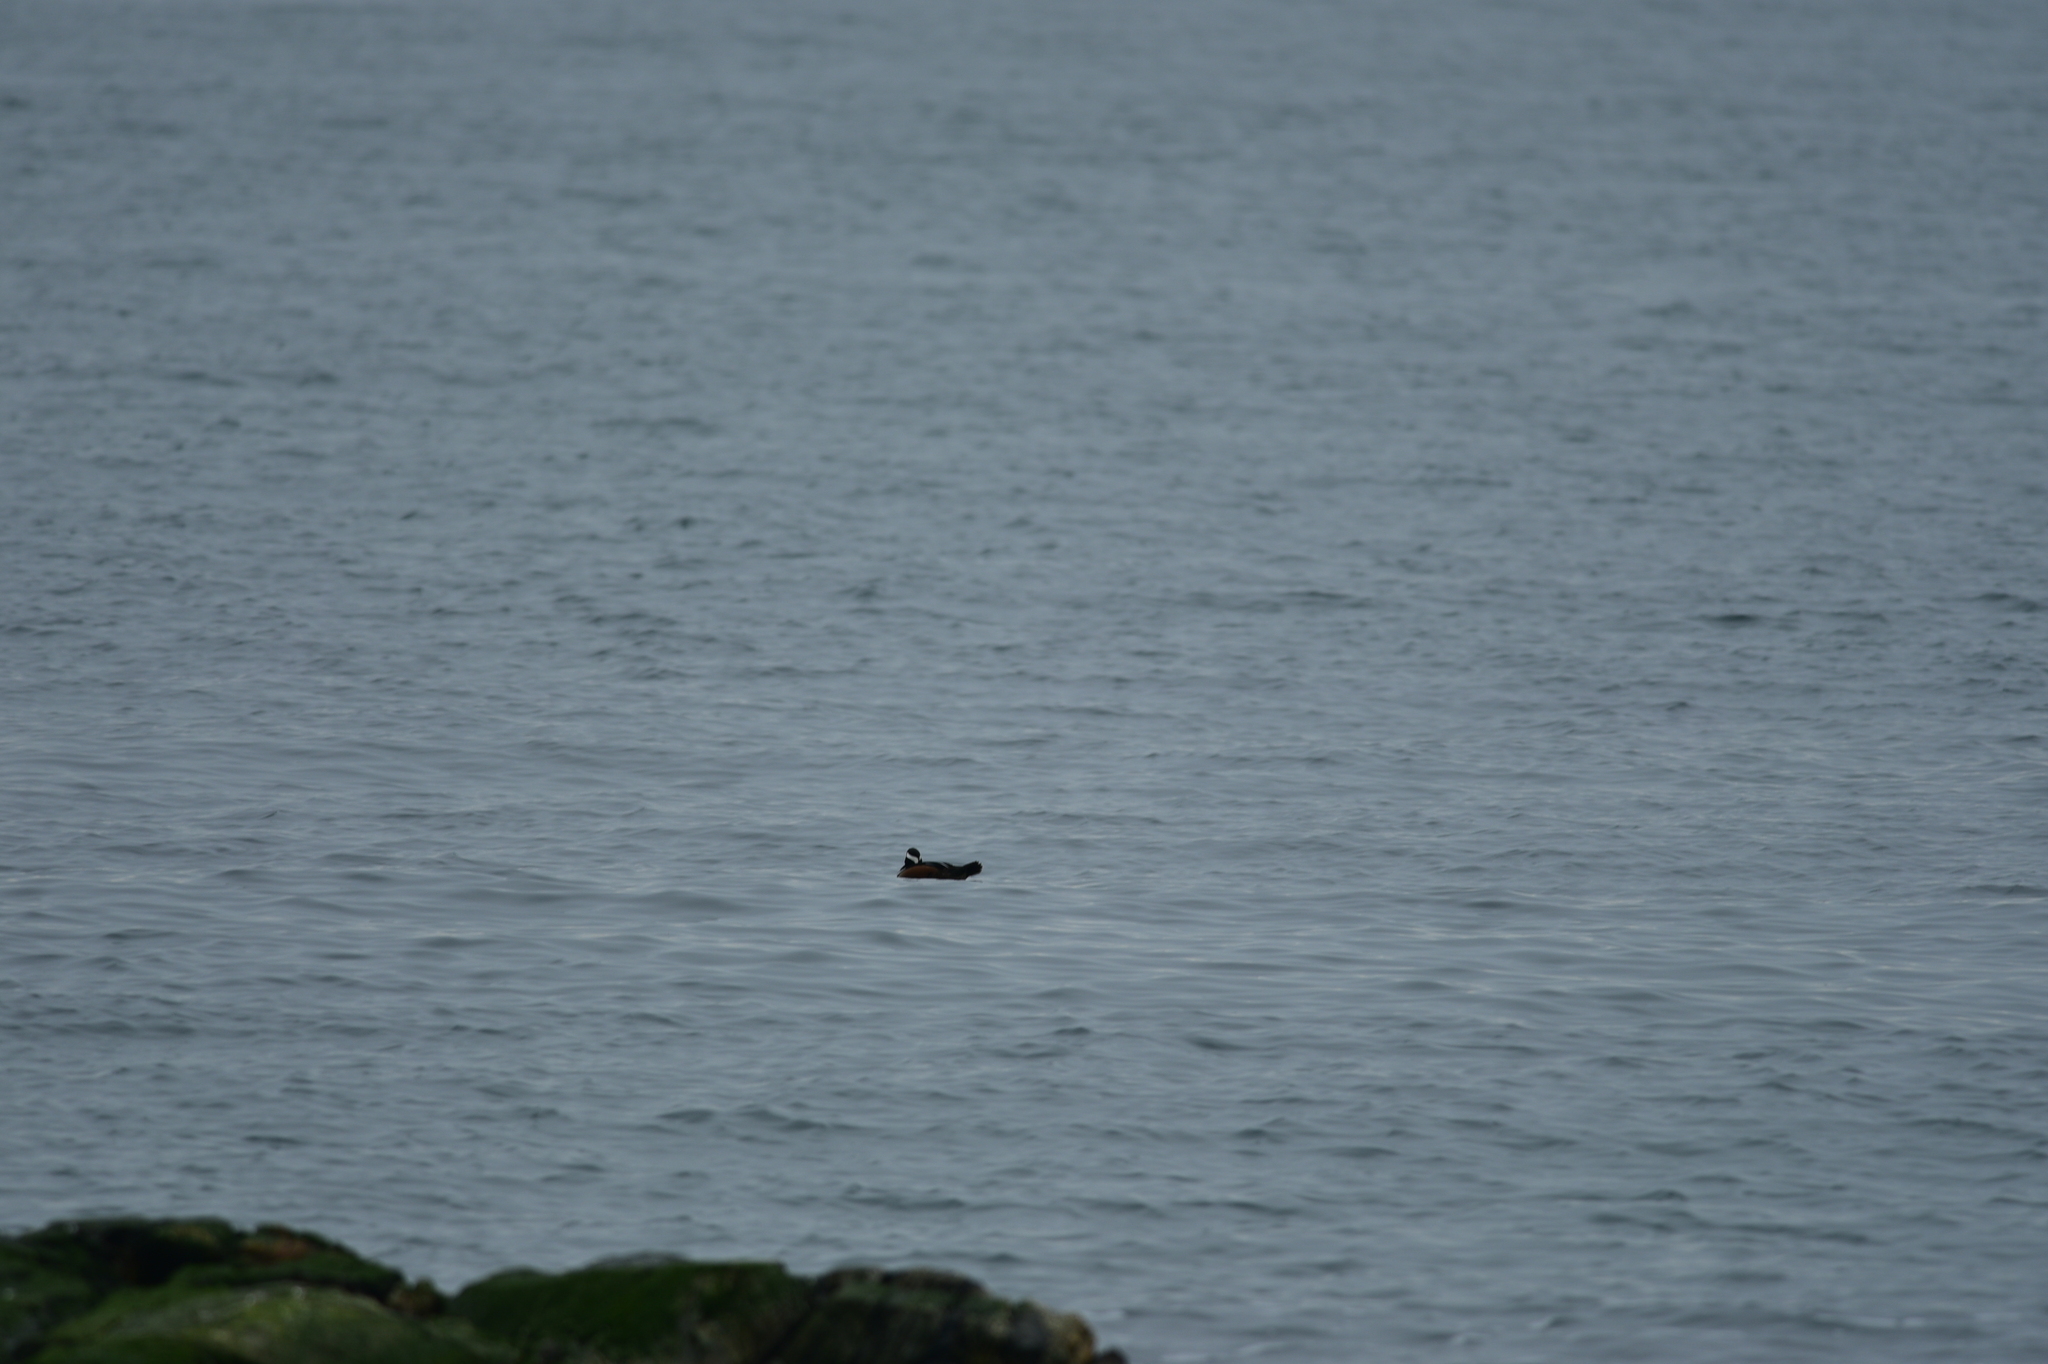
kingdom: Animalia
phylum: Chordata
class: Aves
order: Anseriformes
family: Anatidae
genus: Lophodytes
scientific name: Lophodytes cucullatus
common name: Hooded merganser
